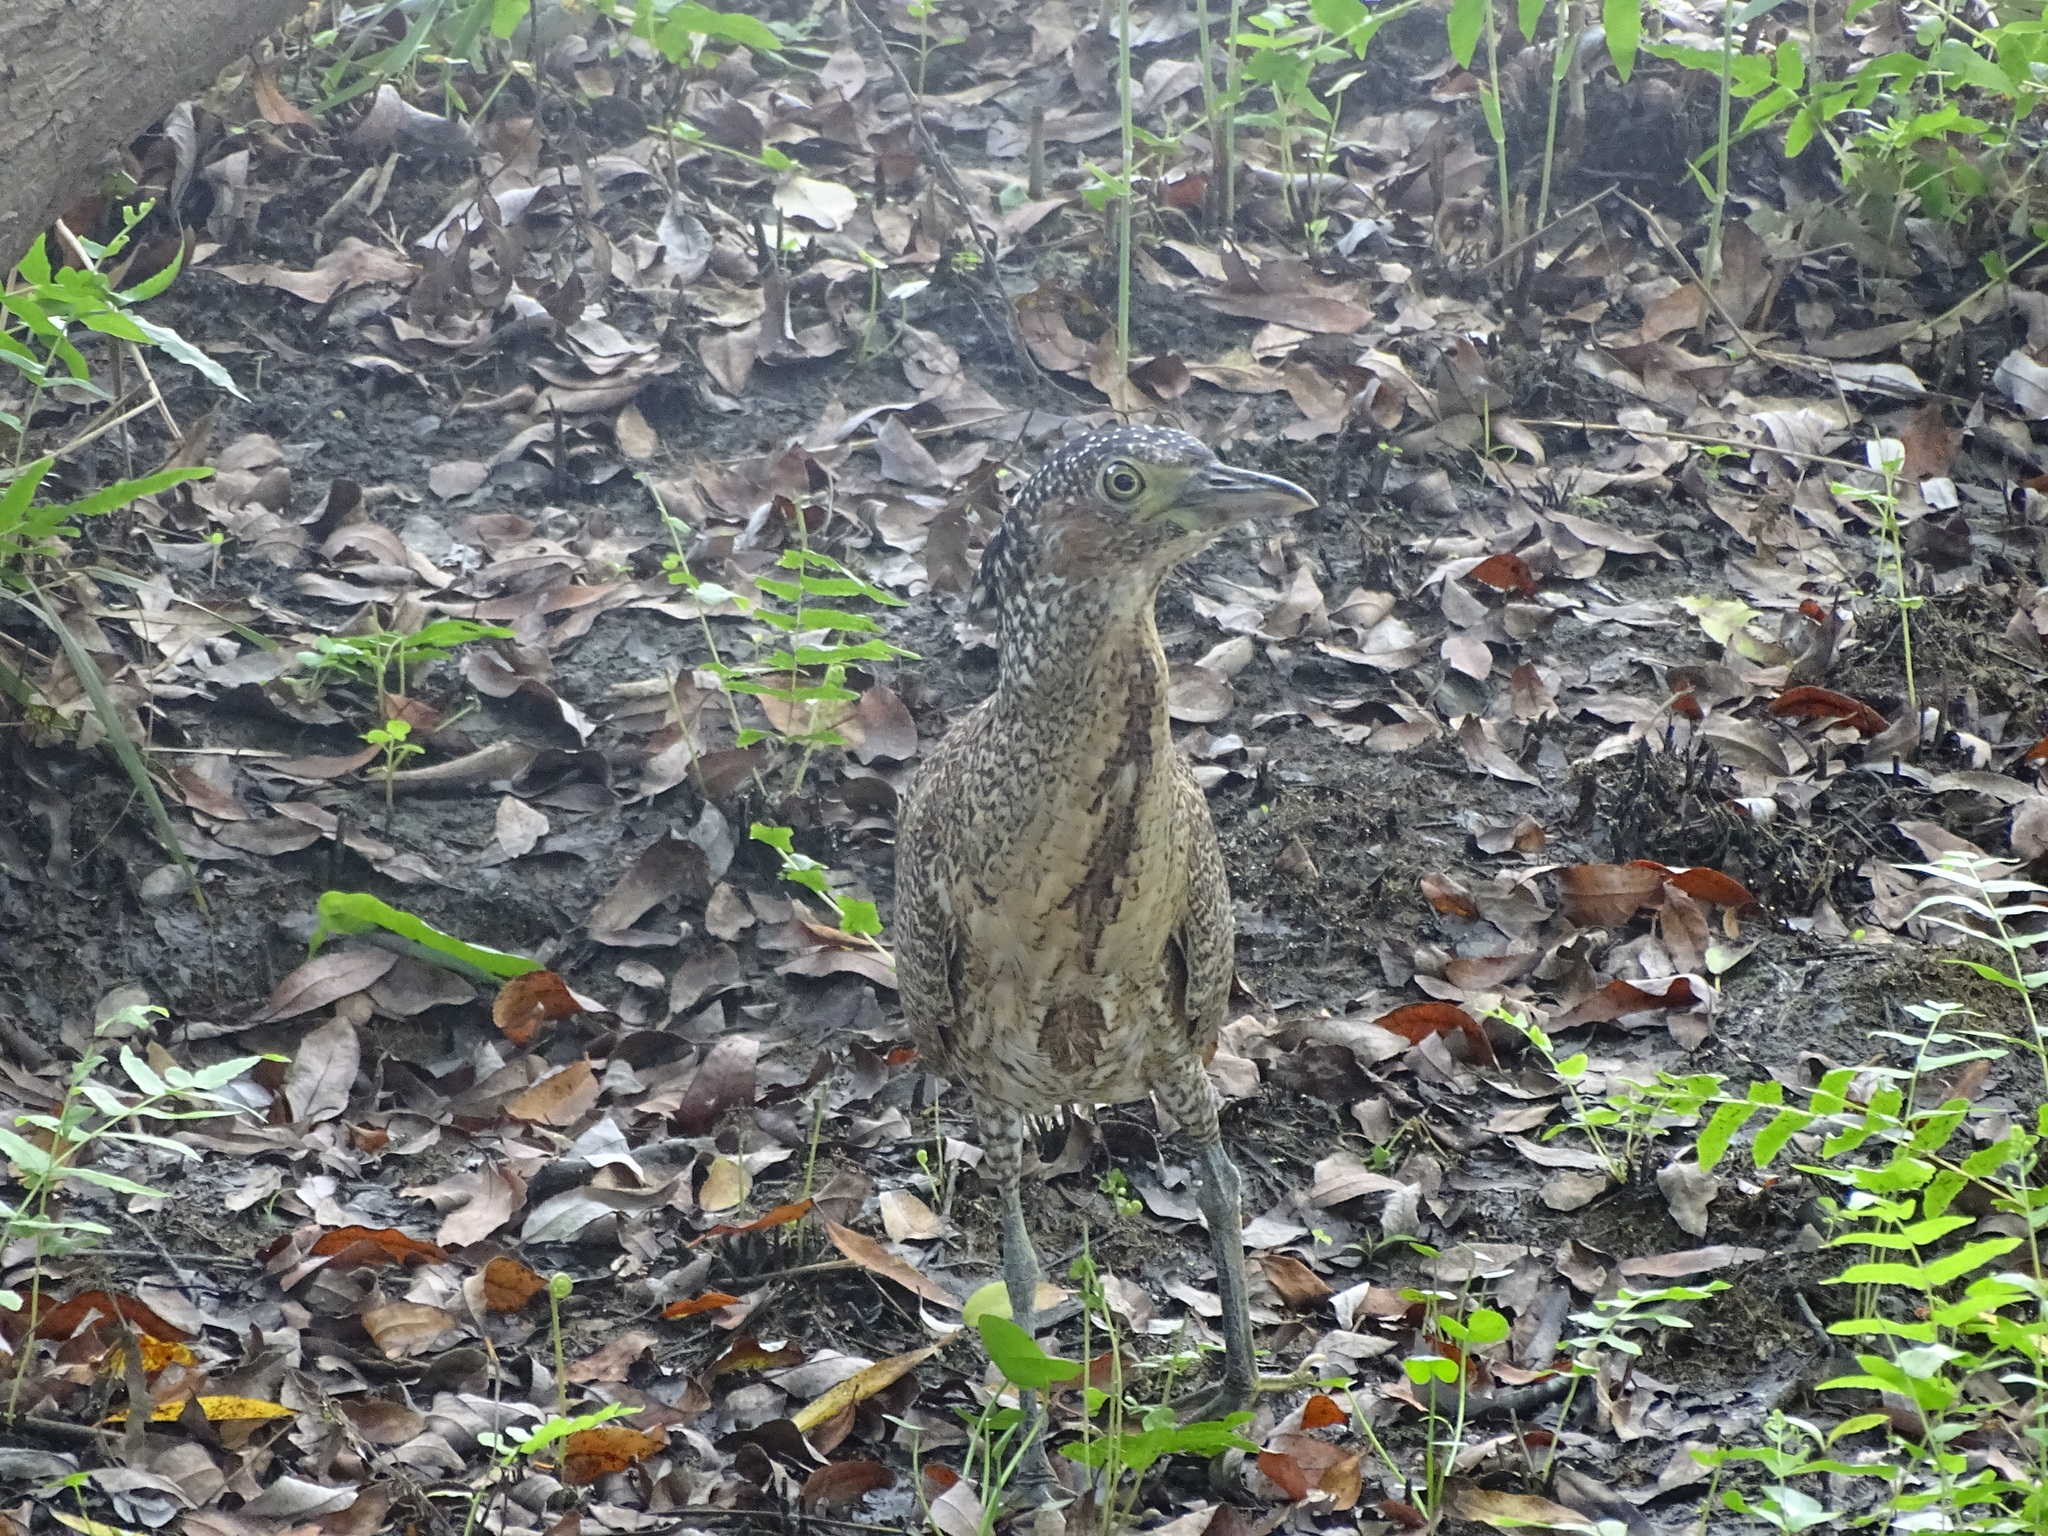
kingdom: Animalia
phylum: Chordata
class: Aves
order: Pelecaniformes
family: Ardeidae
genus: Gorsachius
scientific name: Gorsachius melanolophus
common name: Malayan night heron
